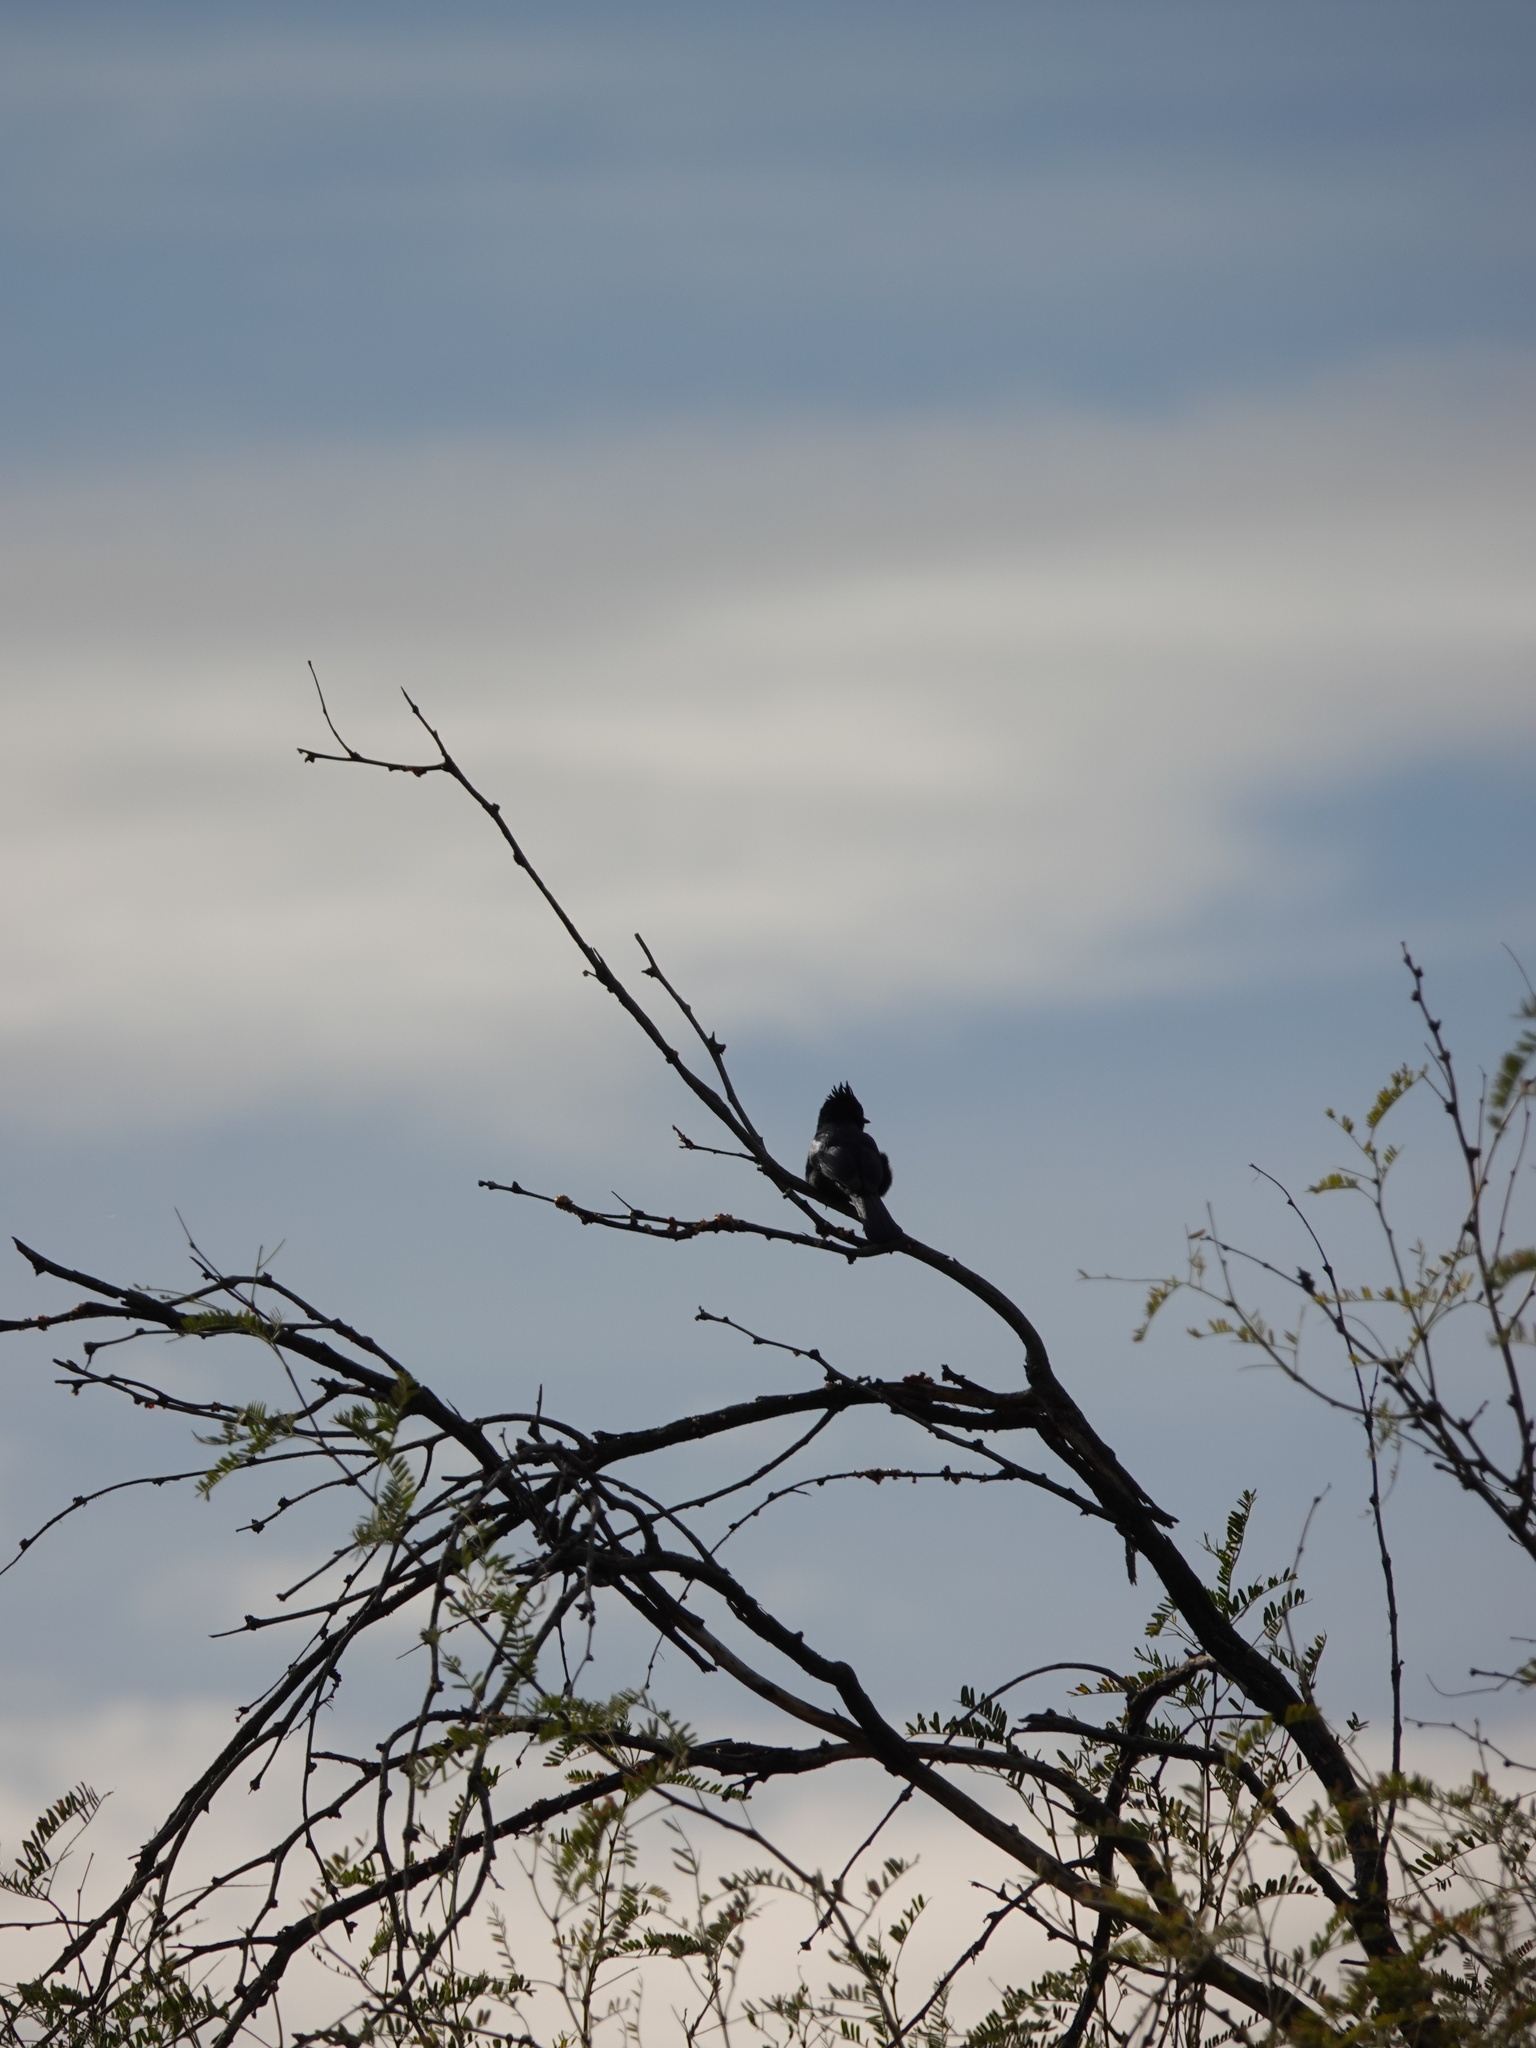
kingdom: Animalia
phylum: Chordata
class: Aves
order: Passeriformes
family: Ptilogonatidae
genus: Phainopepla
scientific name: Phainopepla nitens
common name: Phainopepla
